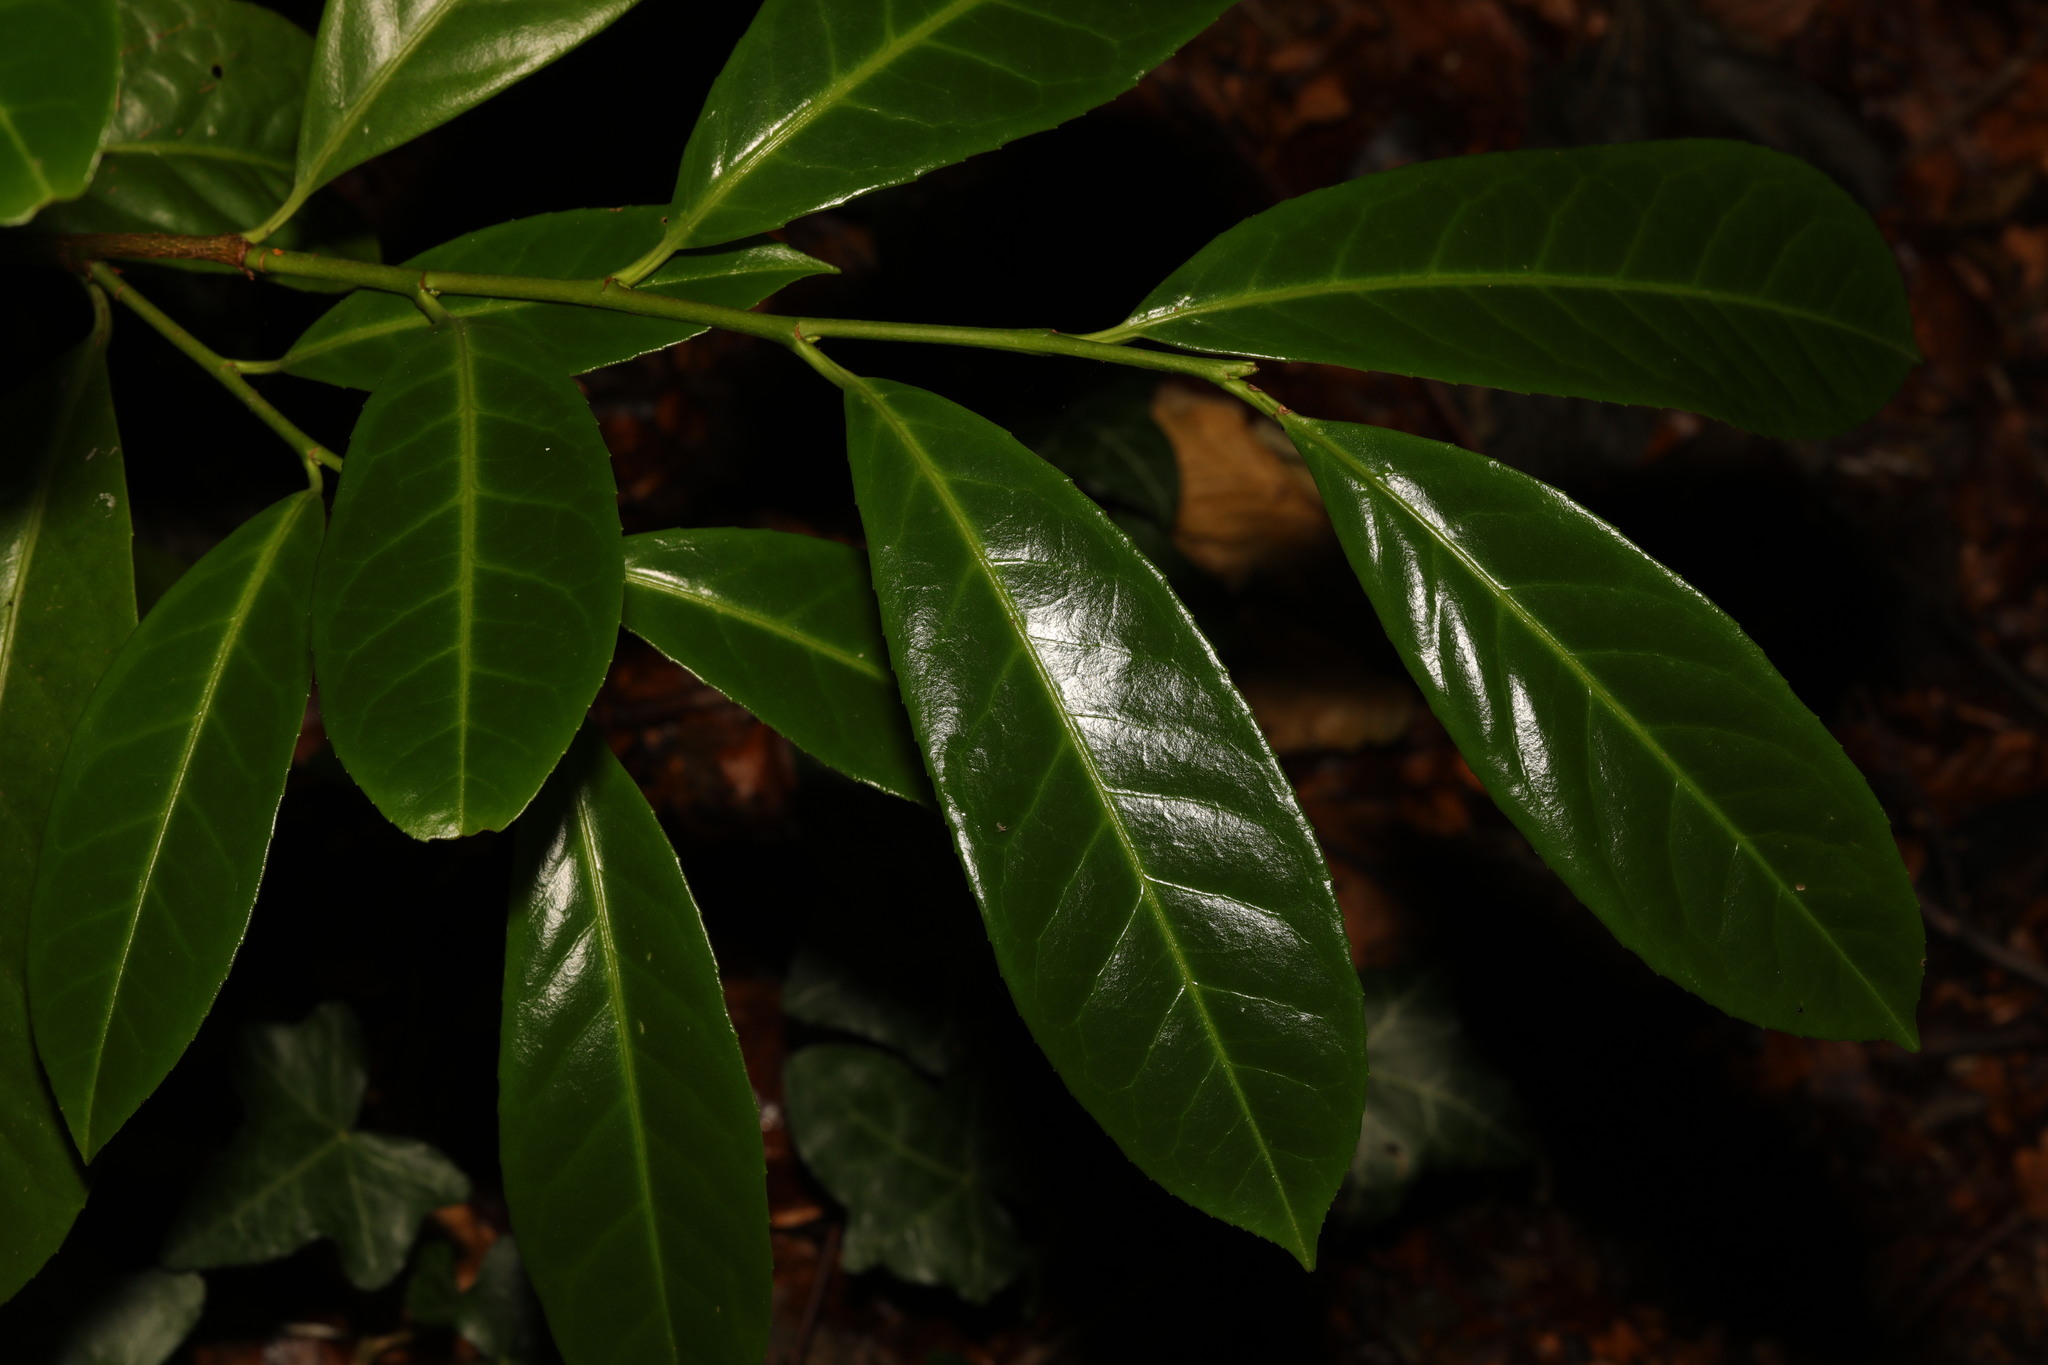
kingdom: Plantae
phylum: Tracheophyta
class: Magnoliopsida
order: Rosales
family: Rosaceae
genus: Prunus
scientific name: Prunus laurocerasus
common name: Cherry laurel
